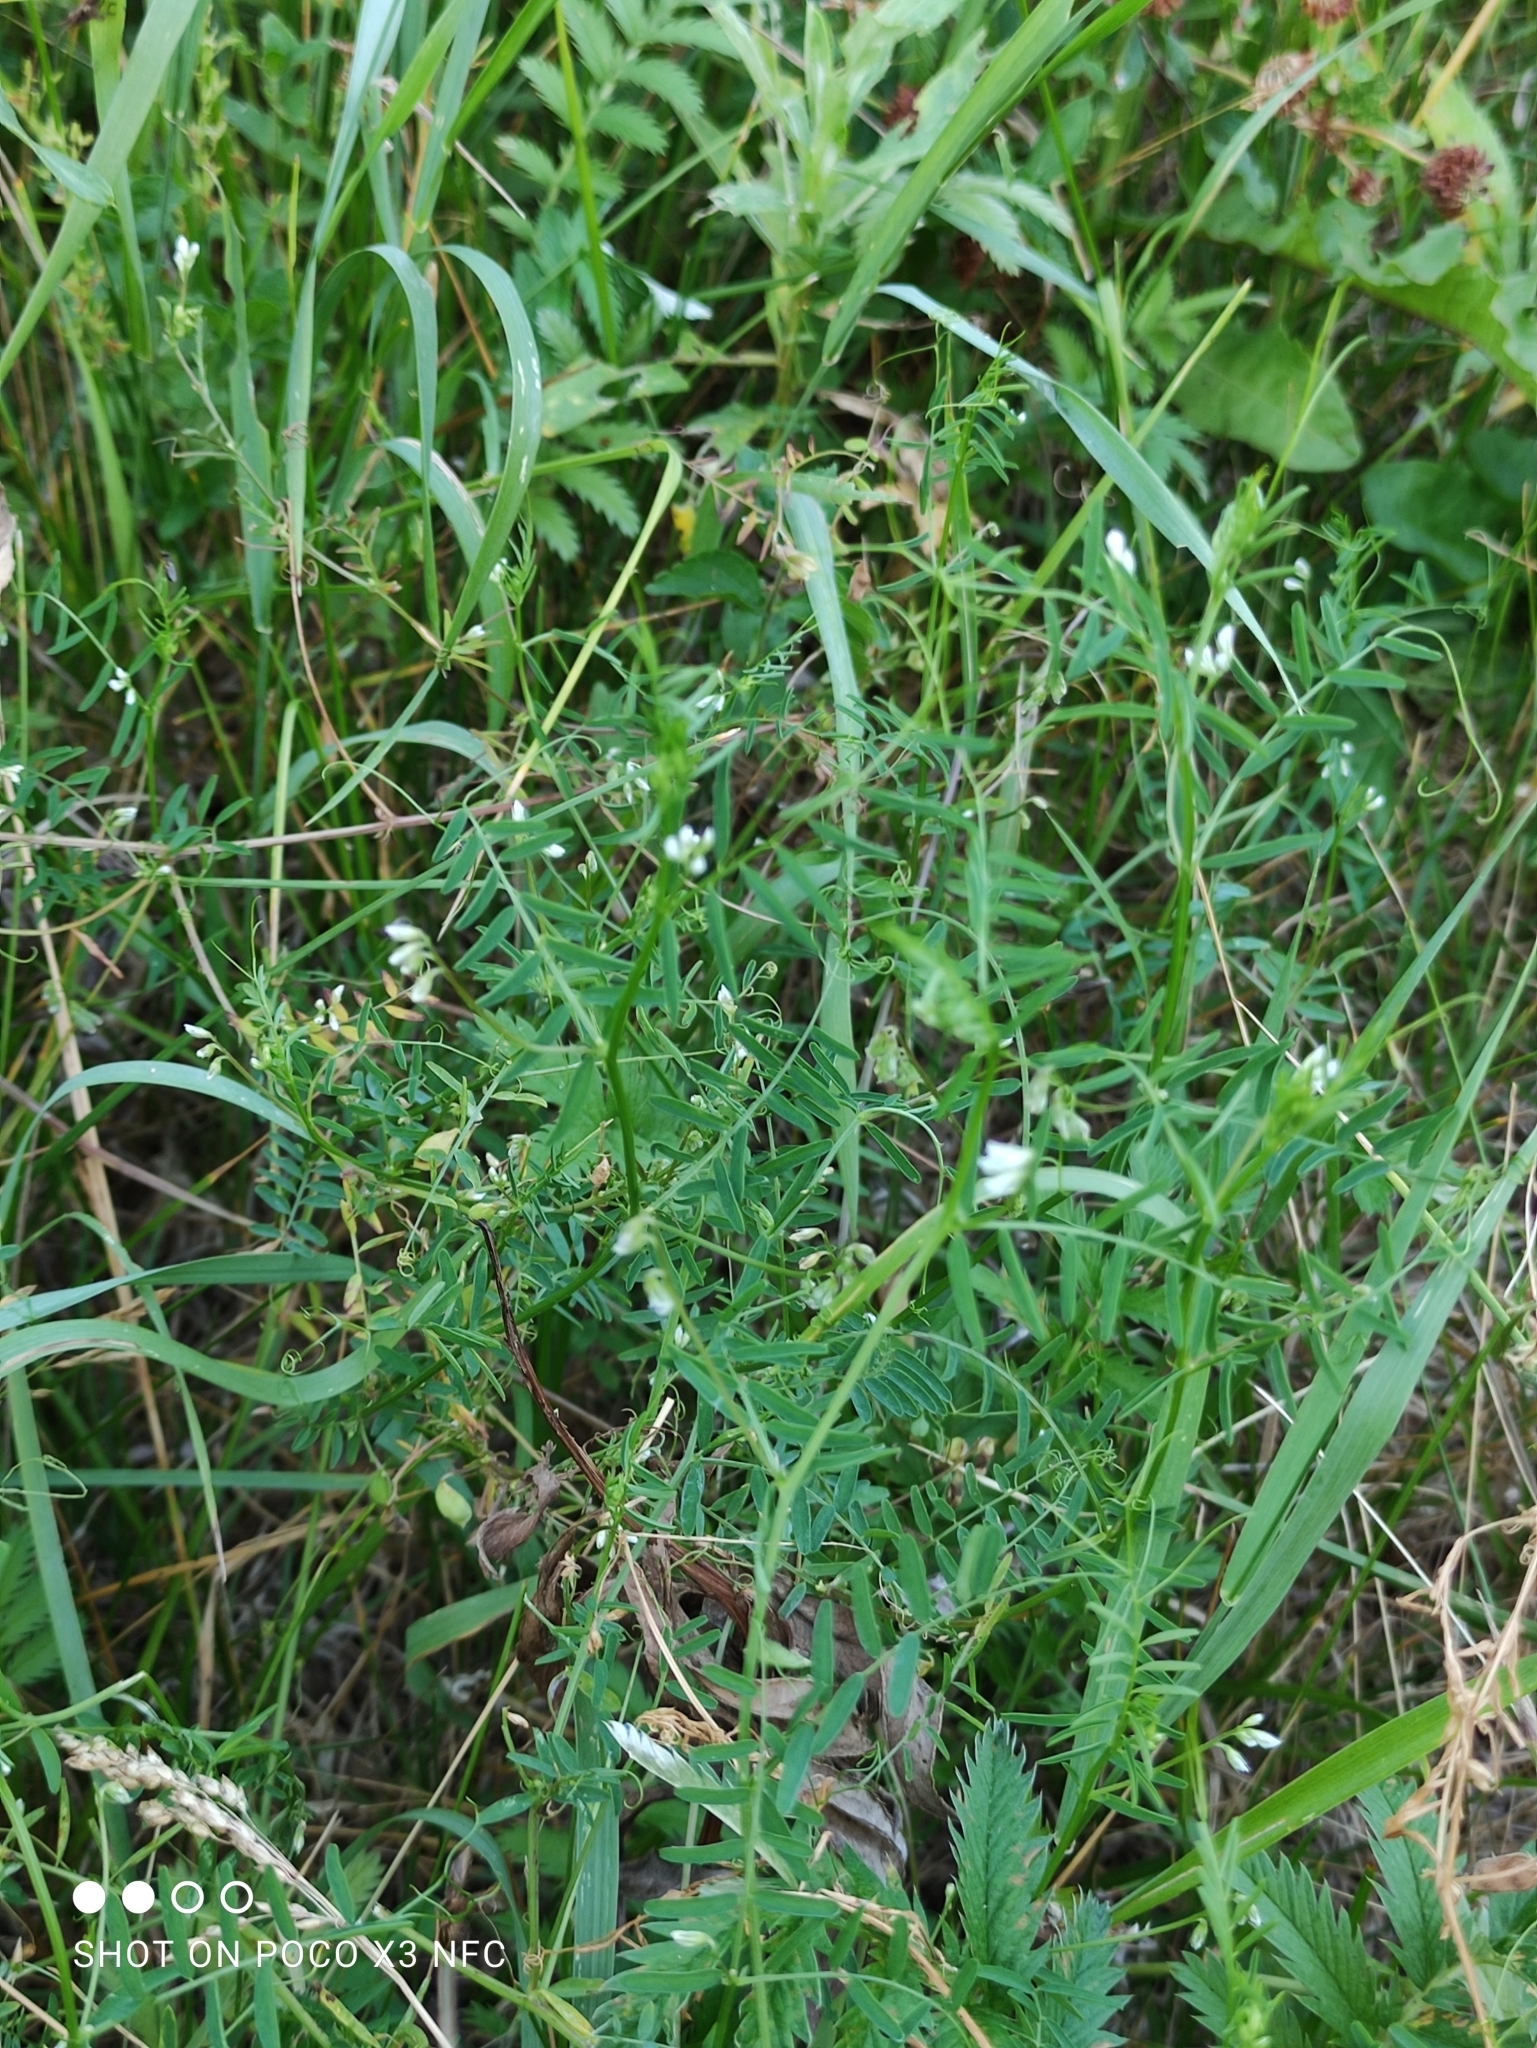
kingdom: Plantae
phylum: Tracheophyta
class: Magnoliopsida
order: Fabales
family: Fabaceae
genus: Vicia
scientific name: Vicia hirsuta
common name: Tiny vetch
